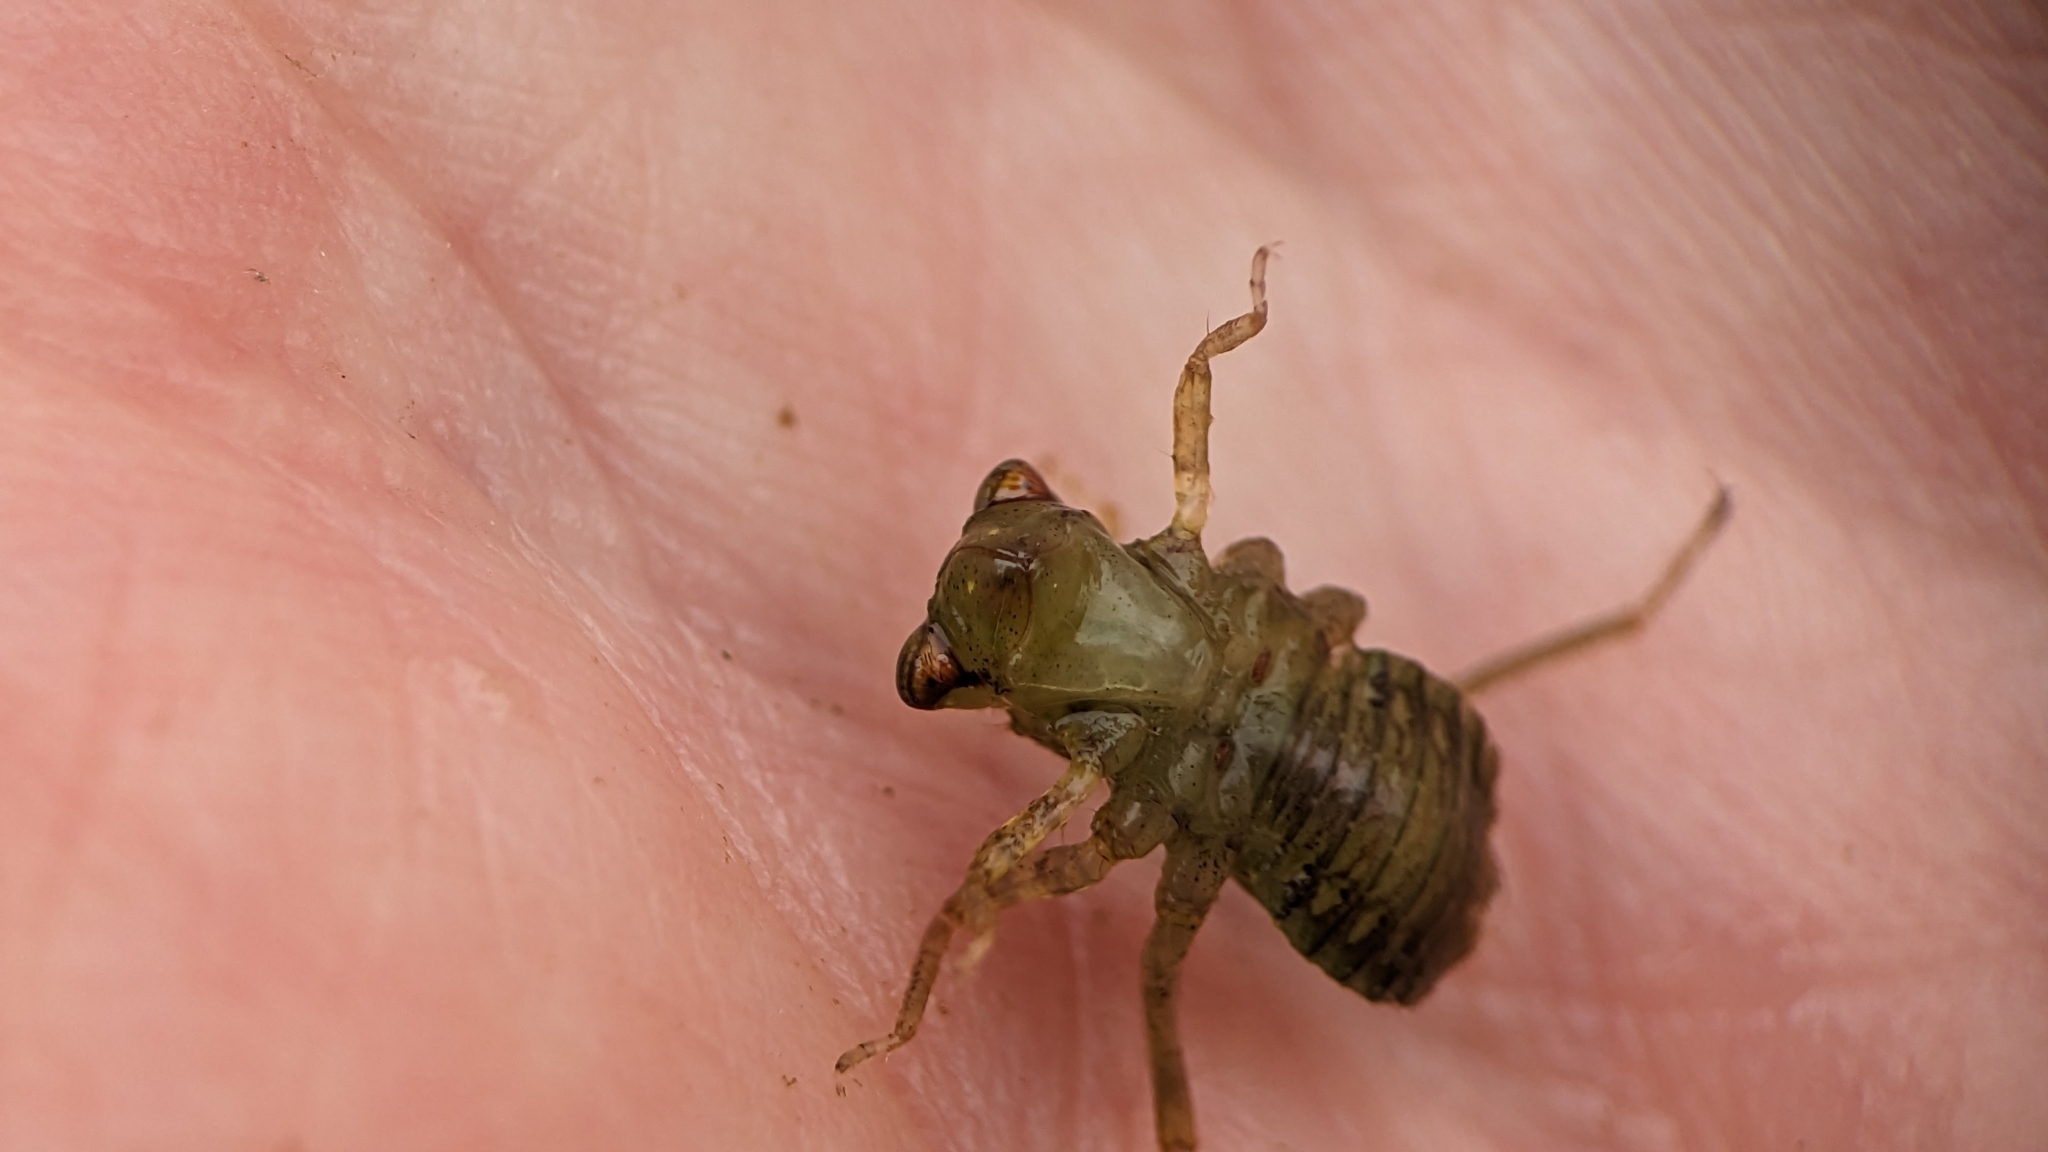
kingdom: Animalia
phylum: Arthropoda
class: Insecta
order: Odonata
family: Libellulidae
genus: Erythemis
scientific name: Erythemis simplicicollis
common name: Eastern pondhawk
